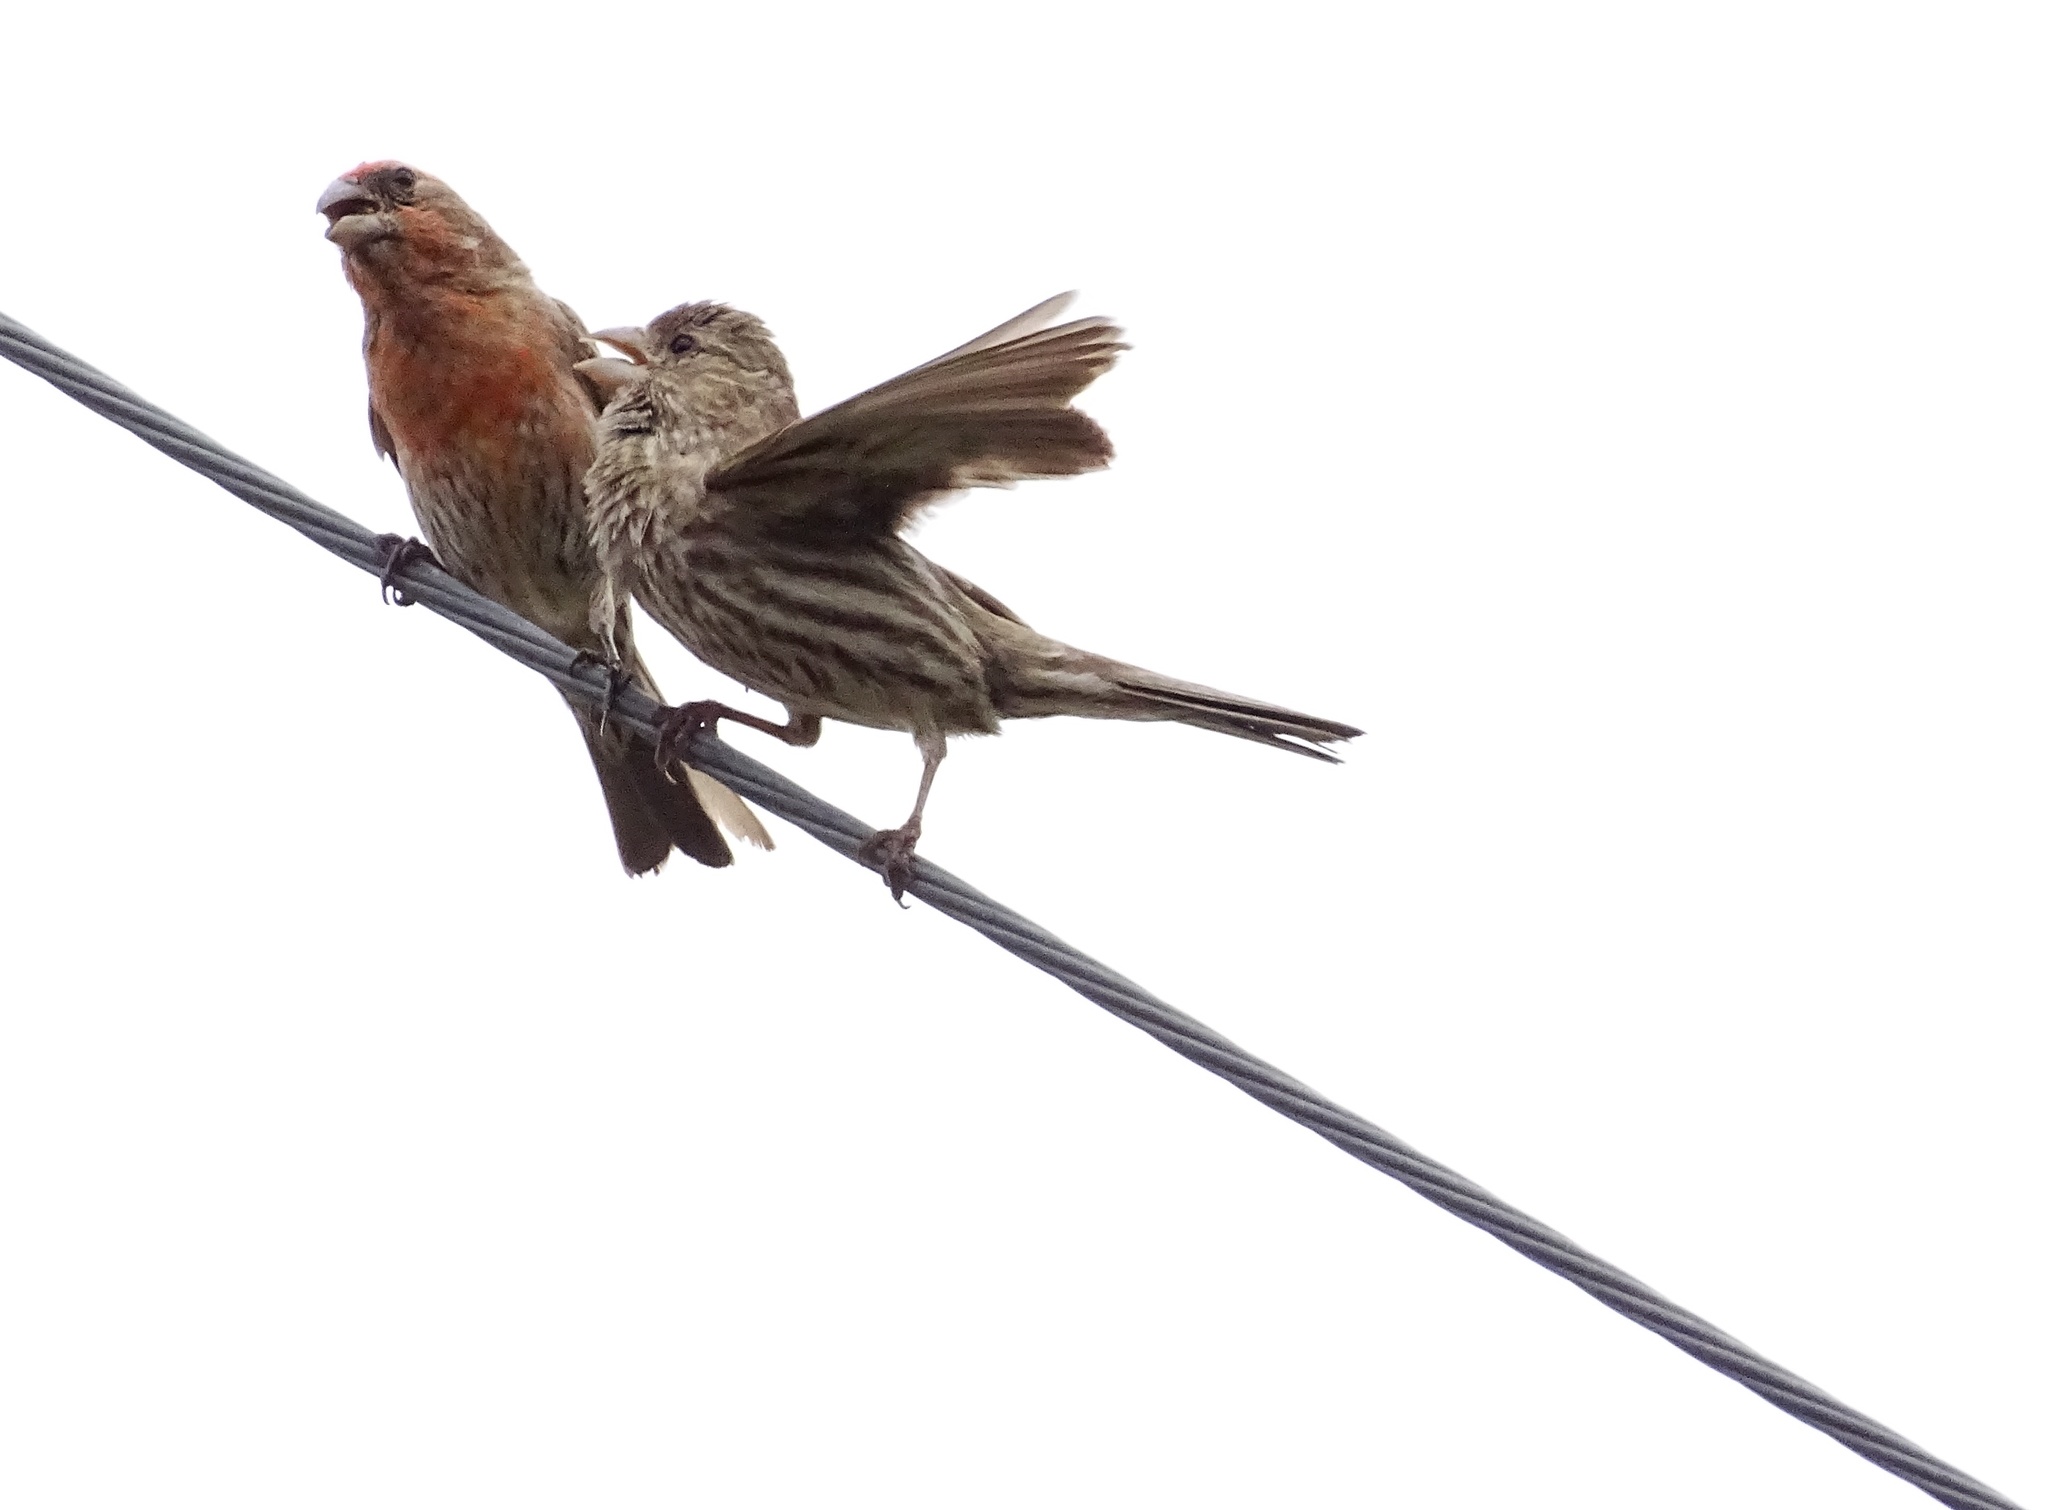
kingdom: Animalia
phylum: Chordata
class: Aves
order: Passeriformes
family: Fringillidae
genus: Haemorhous
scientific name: Haemorhous mexicanus
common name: House finch
